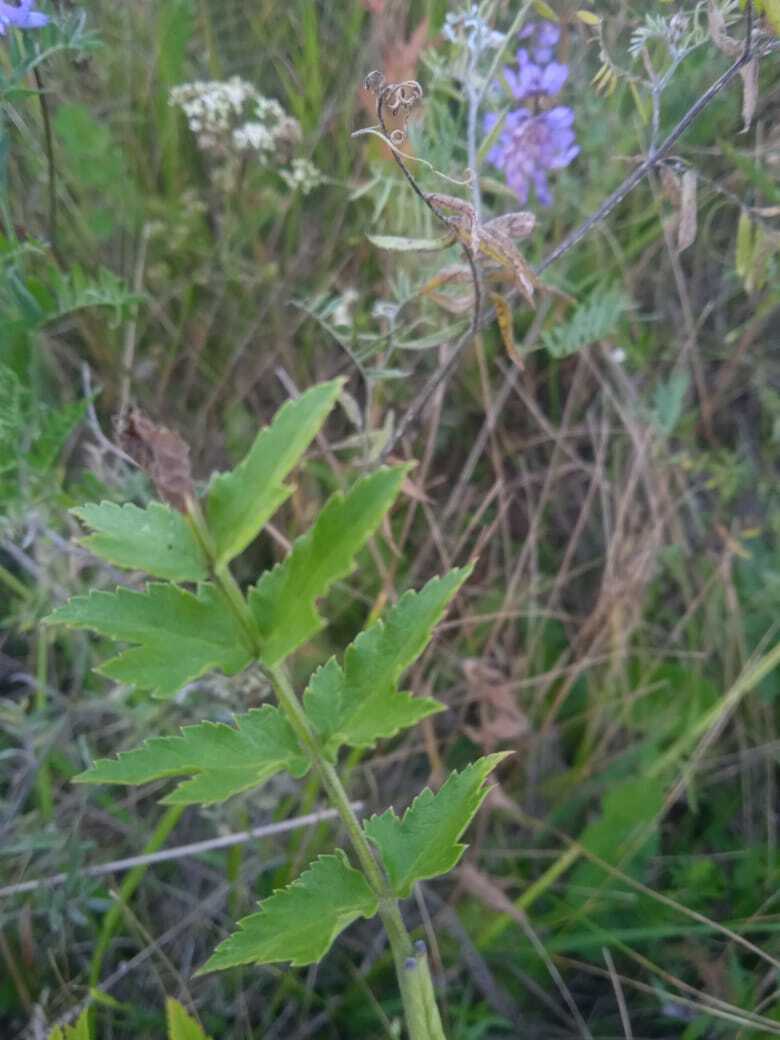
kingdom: Plantae
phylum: Tracheophyta
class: Magnoliopsida
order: Apiales
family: Apiaceae
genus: Pastinaca
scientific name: Pastinaca sativa
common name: Wild parsnip
